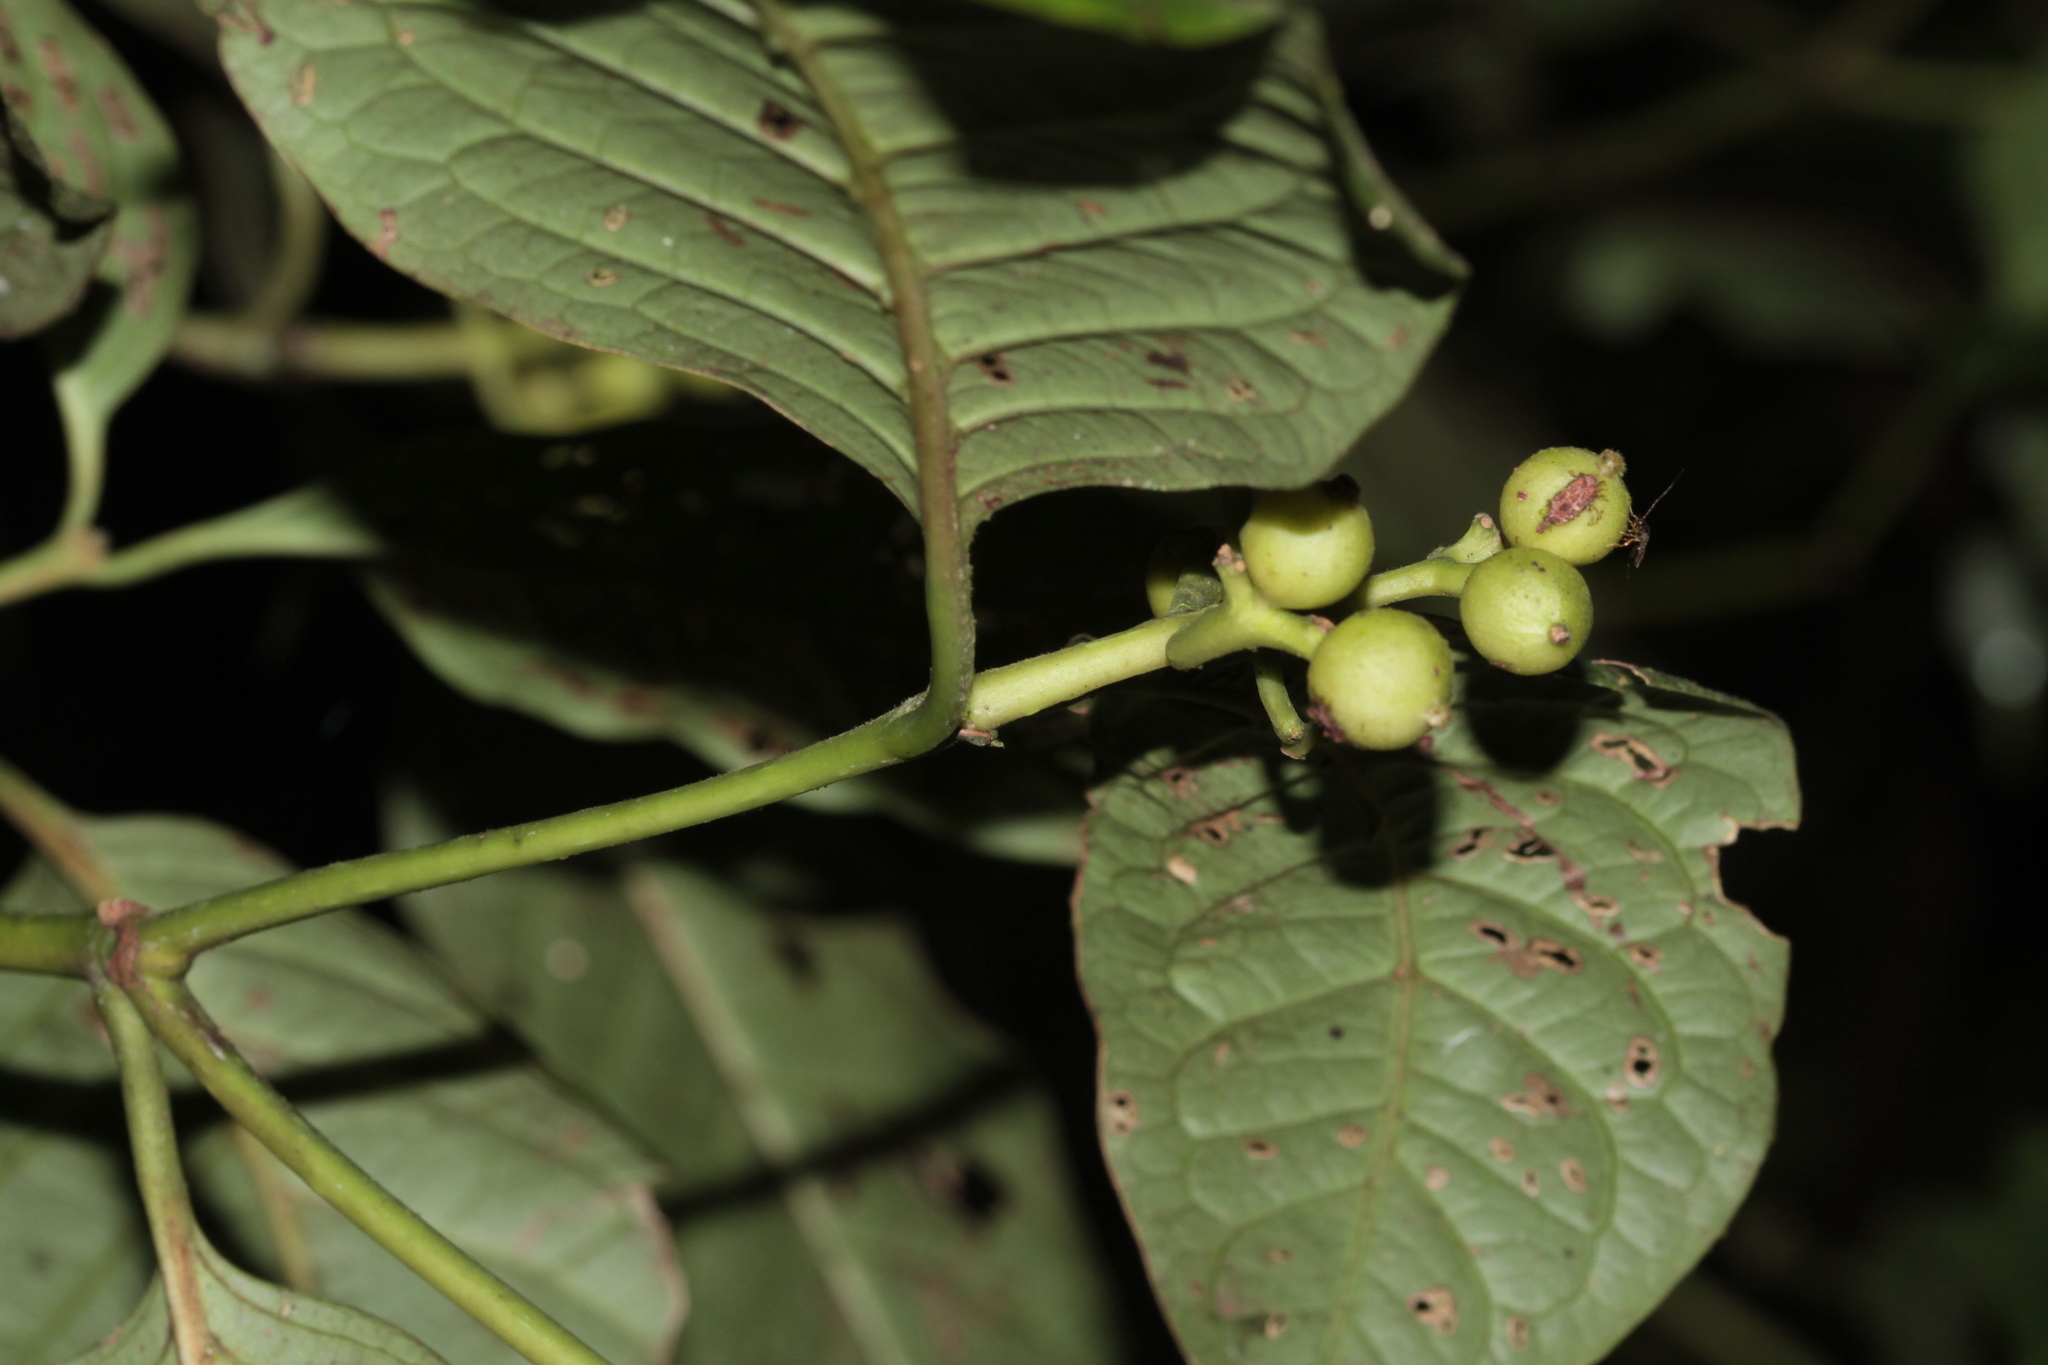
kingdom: Plantae
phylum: Tracheophyta
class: Magnoliopsida
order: Gentianales
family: Rubiaceae
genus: Coussarea
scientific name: Coussarea micrococca
